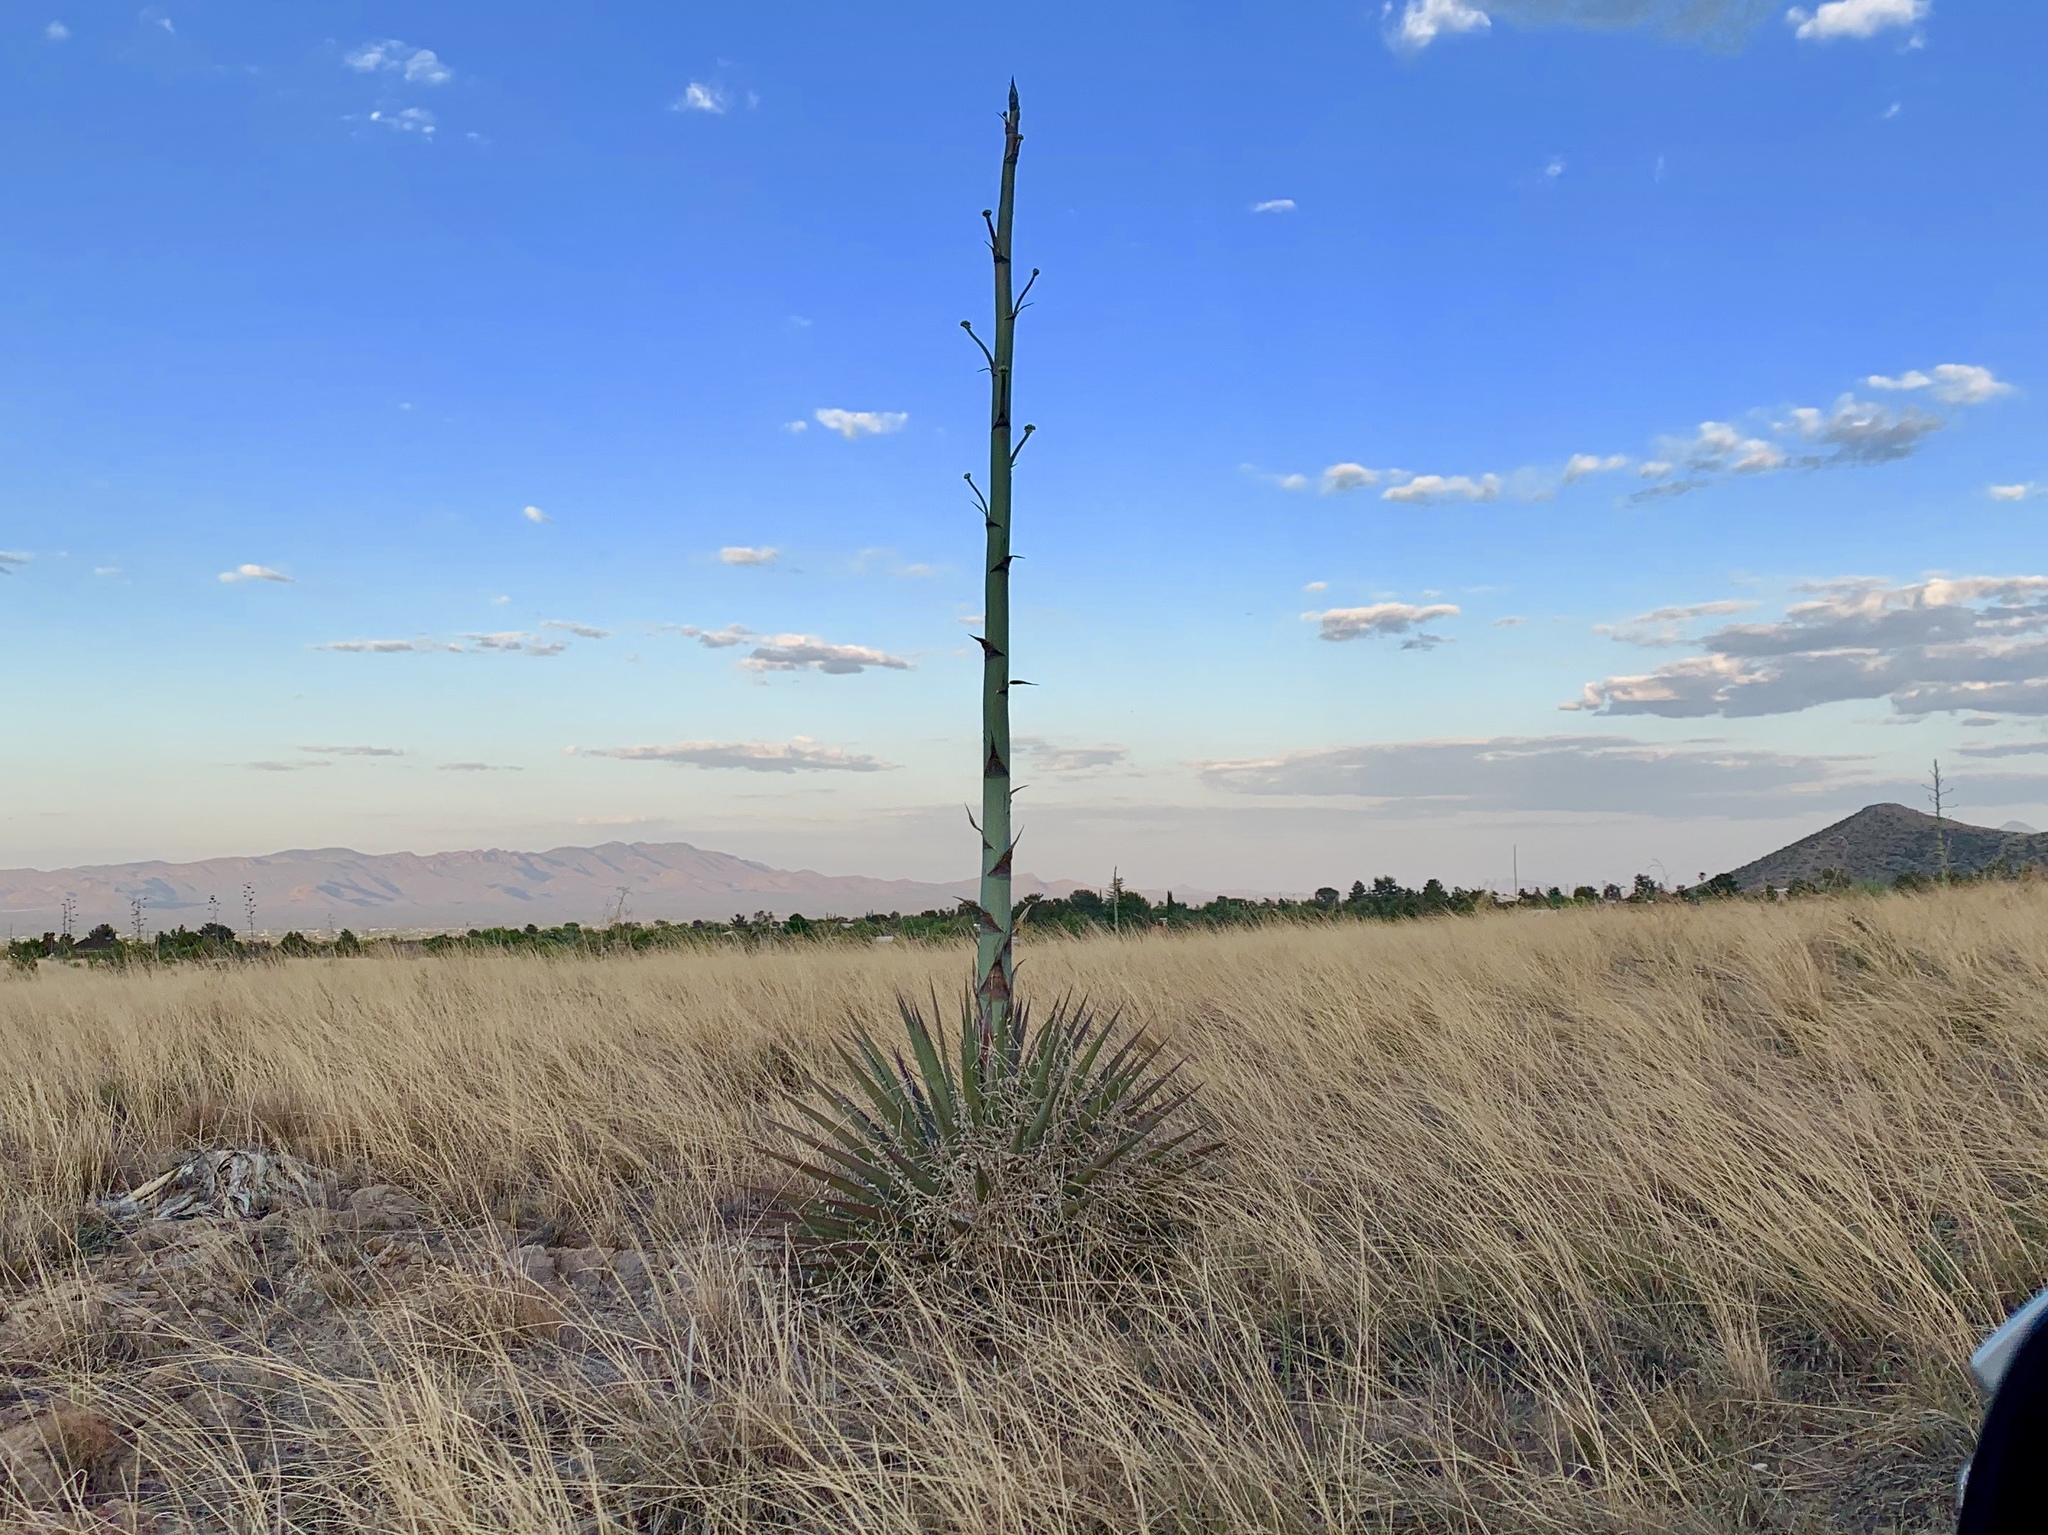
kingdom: Plantae
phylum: Tracheophyta
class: Liliopsida
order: Asparagales
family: Asparagaceae
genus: Agave
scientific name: Agave palmeri
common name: Palmer agave
